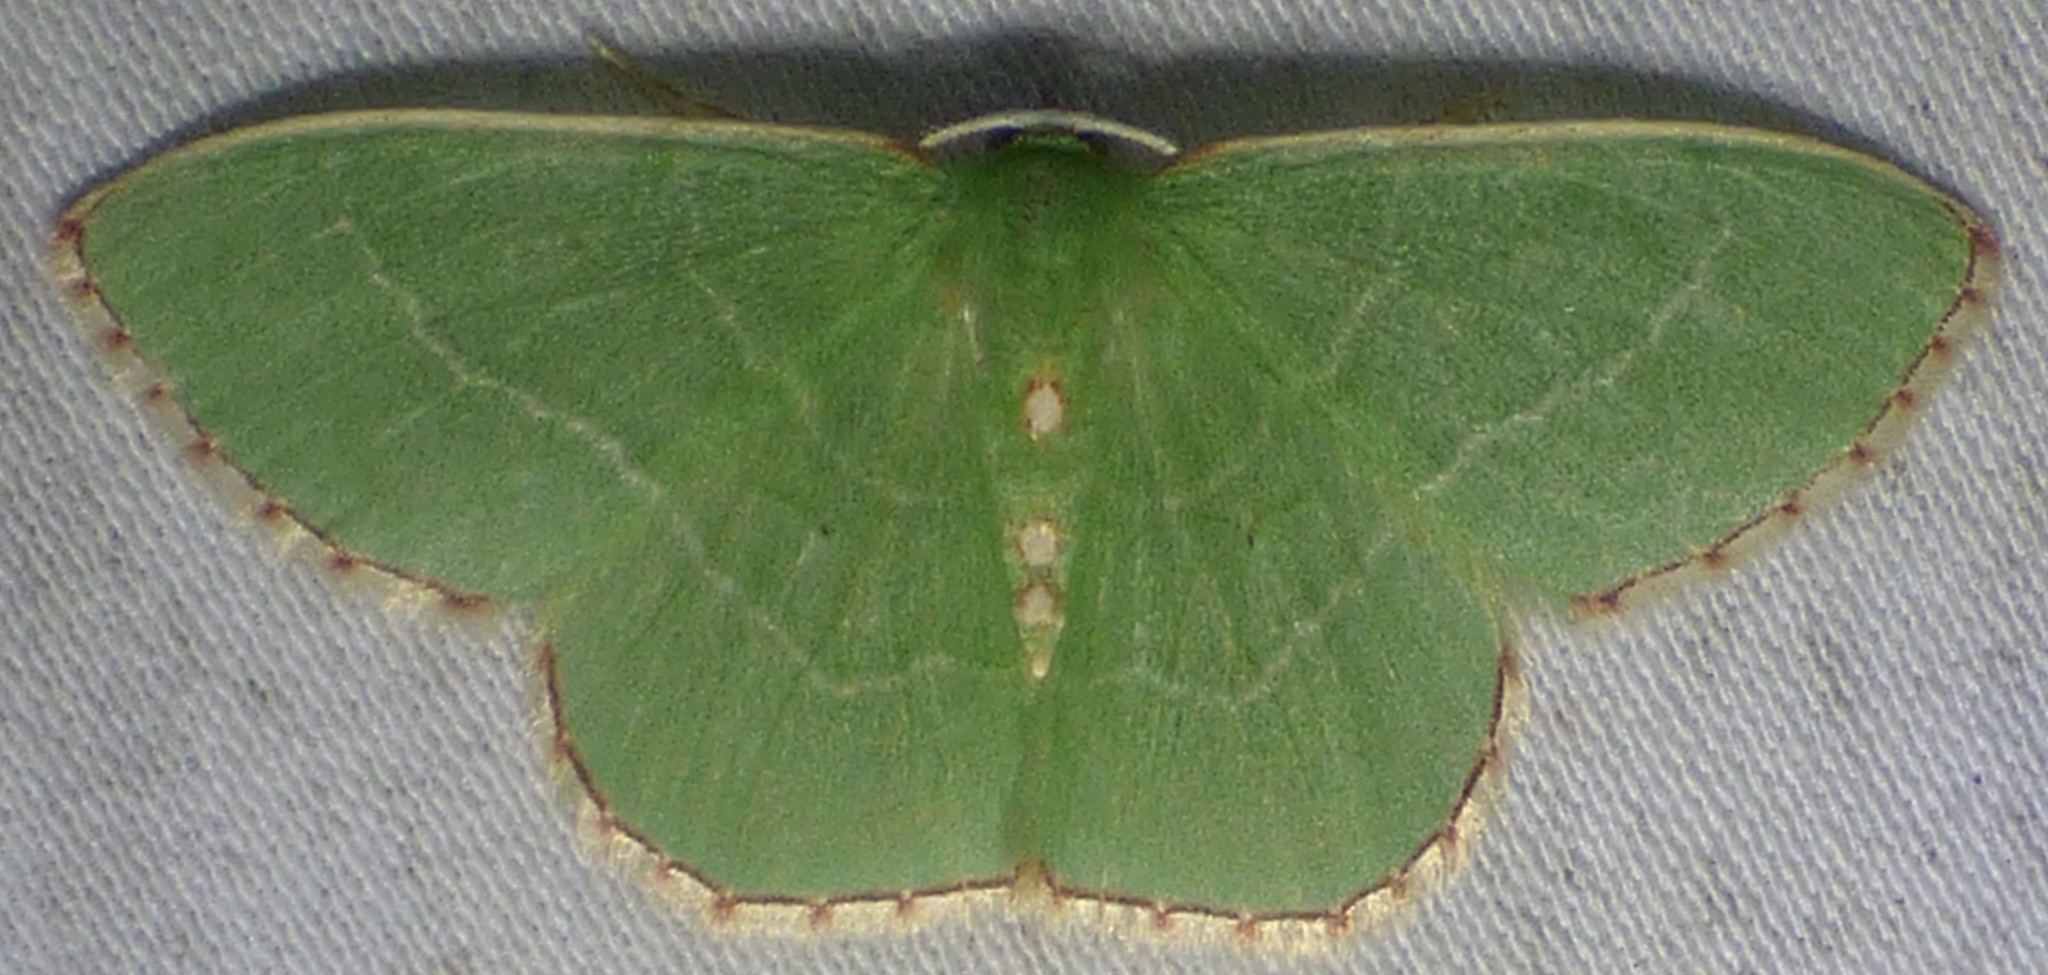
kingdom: Animalia
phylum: Arthropoda
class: Insecta
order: Lepidoptera
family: Geometridae
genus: Nemoria
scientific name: Nemoria lixaria
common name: Red-bordered emerald
